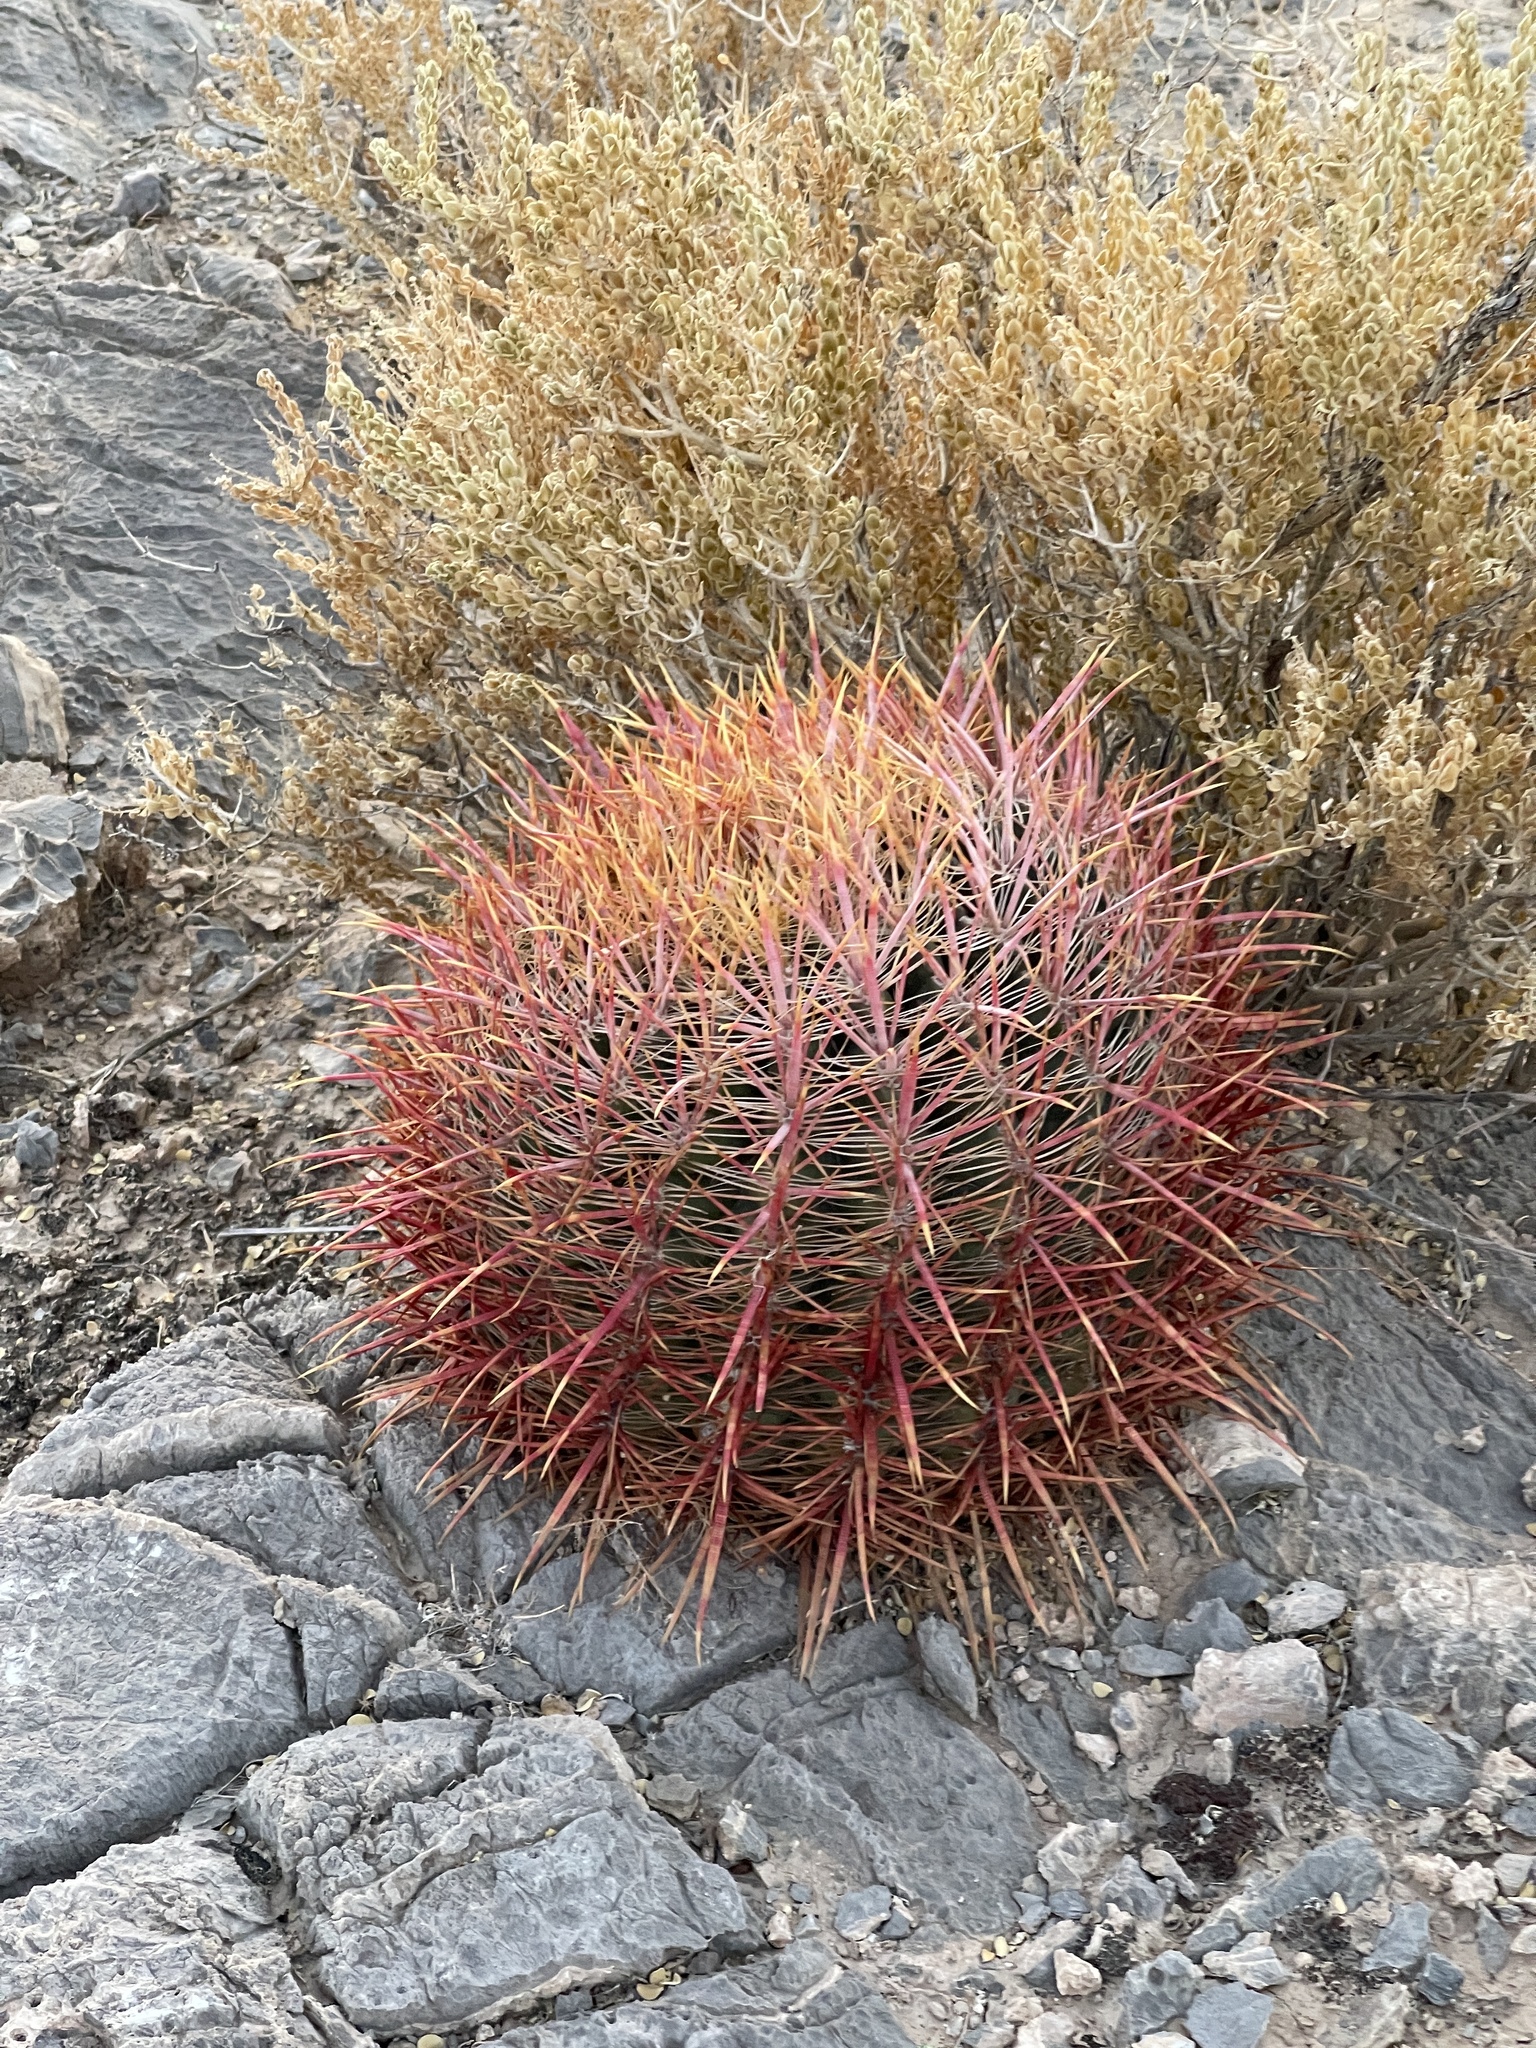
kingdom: Plantae
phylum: Tracheophyta
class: Magnoliopsida
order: Caryophyllales
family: Cactaceae
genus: Ferocactus
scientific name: Ferocactus cylindraceus
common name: California barrel cactus
